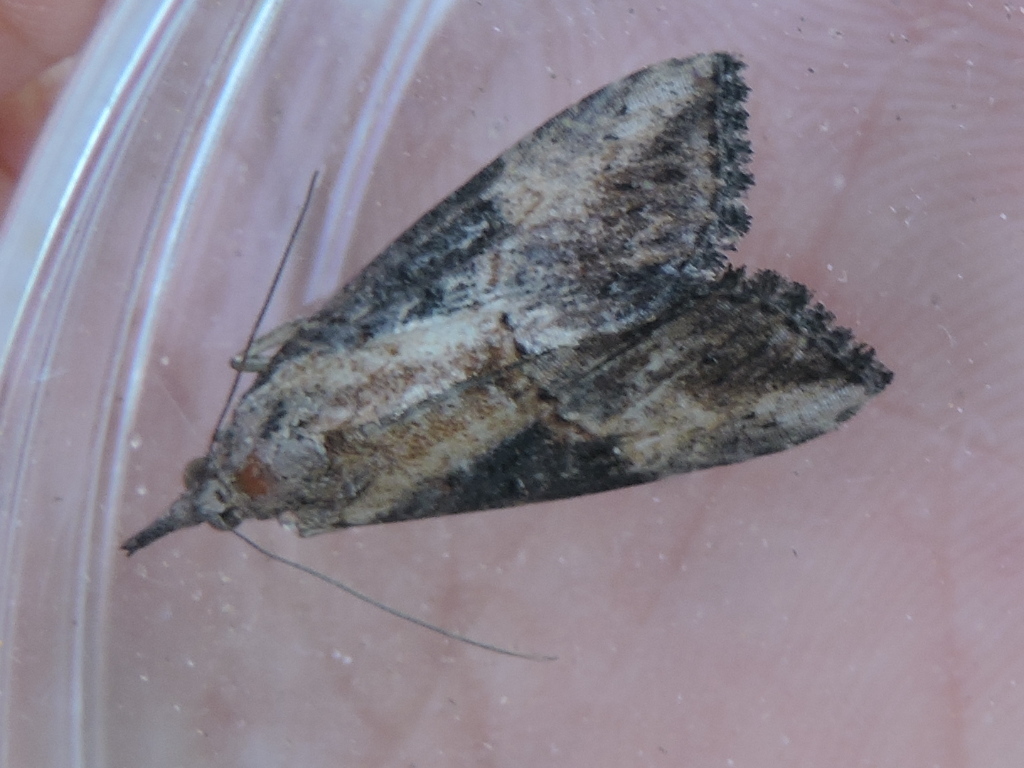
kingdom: Animalia
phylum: Arthropoda
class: Insecta
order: Lepidoptera
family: Erebidae
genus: Hypena
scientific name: Hypena scabra
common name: Green cloverworm
